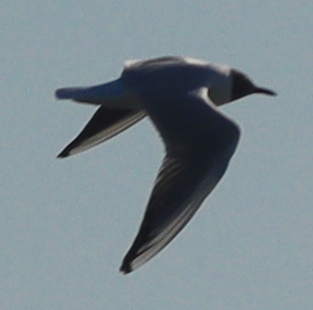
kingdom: Animalia
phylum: Chordata
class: Aves
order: Charadriiformes
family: Laridae
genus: Chroicocephalus
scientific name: Chroicocephalus ridibundus
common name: Black-headed gull
